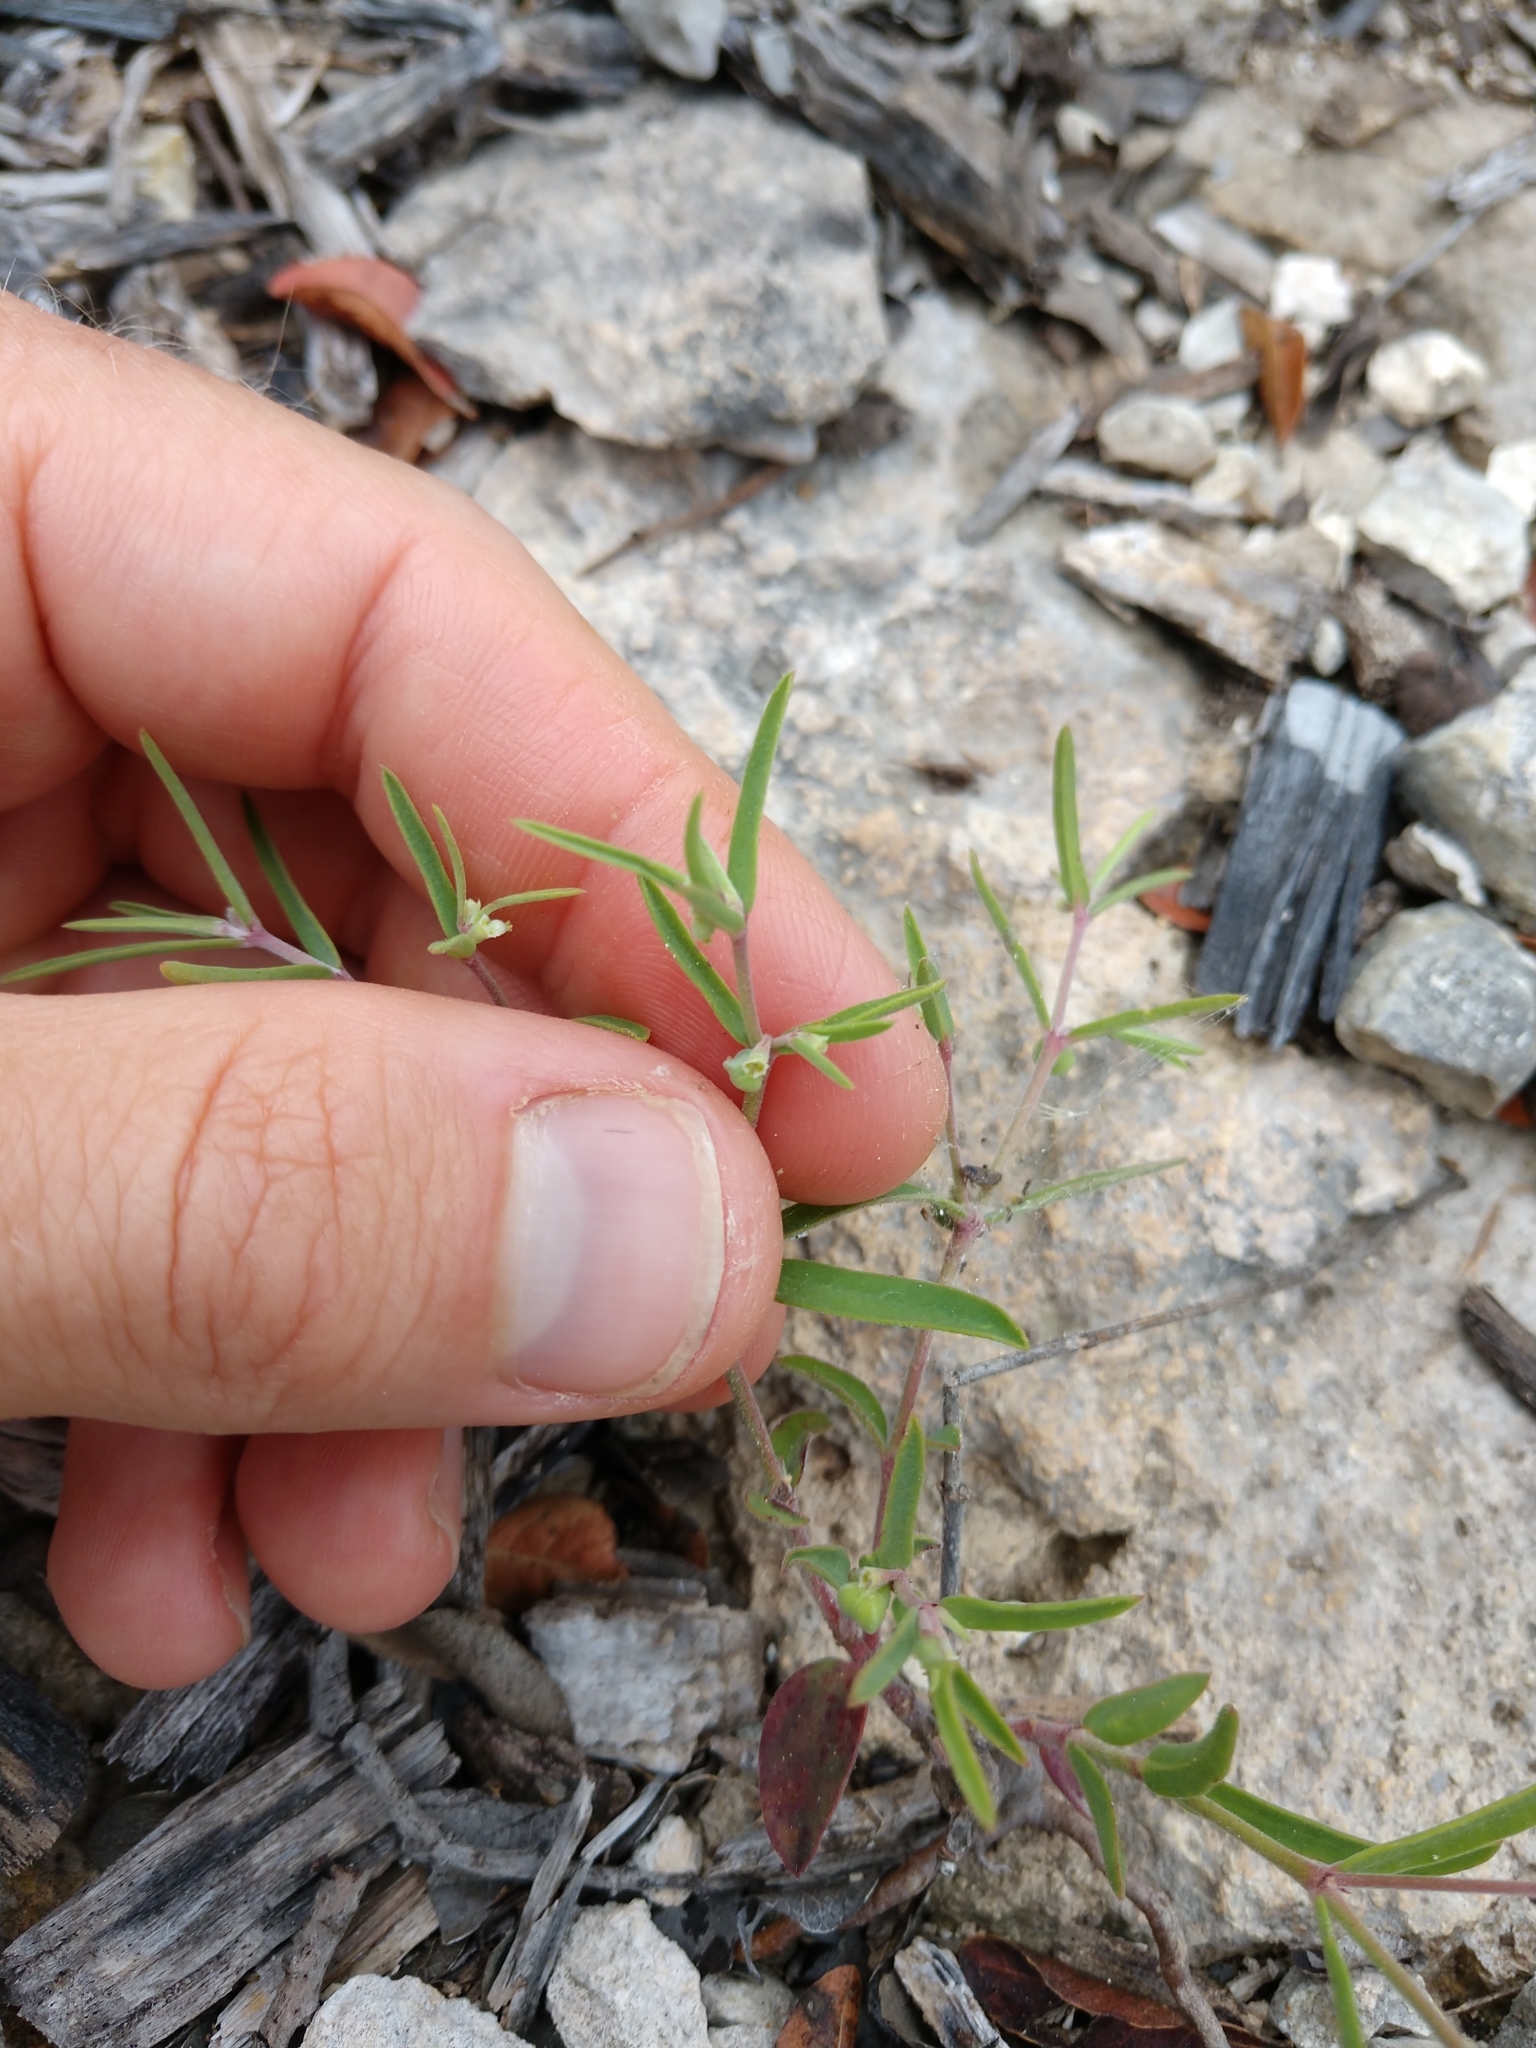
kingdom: Plantae
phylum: Tracheophyta
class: Magnoliopsida
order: Malpighiales
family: Euphorbiaceae
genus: Euphorbia
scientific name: Euphorbia angusta
